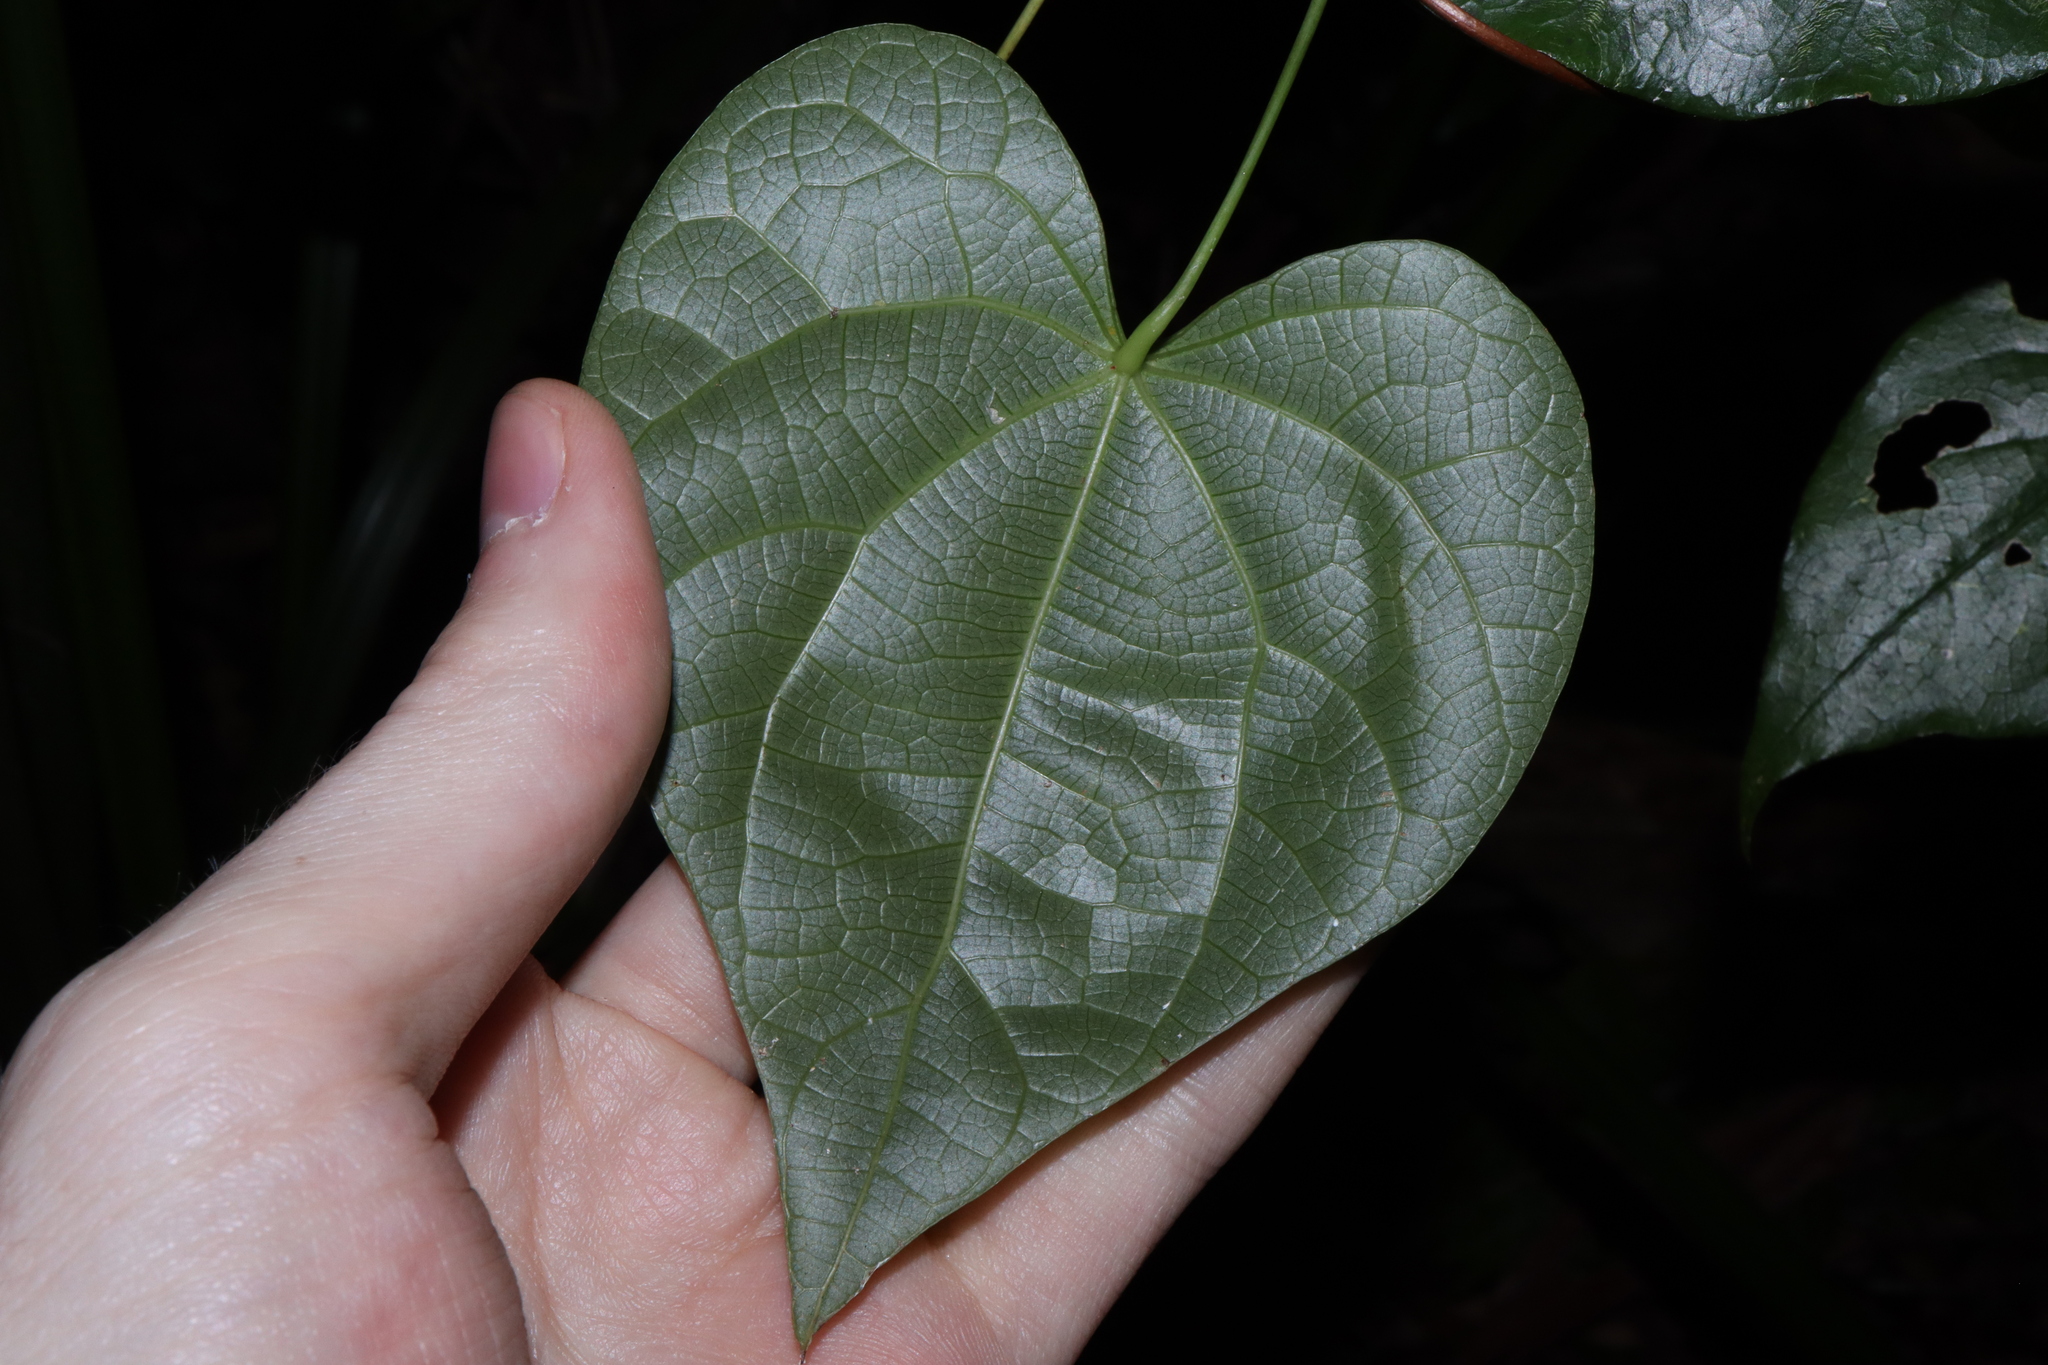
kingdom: Plantae
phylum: Tracheophyta
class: Magnoliopsida
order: Ranunculales
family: Menispermaceae
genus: Sarcopetalum
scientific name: Sarcopetalum harveyanum
